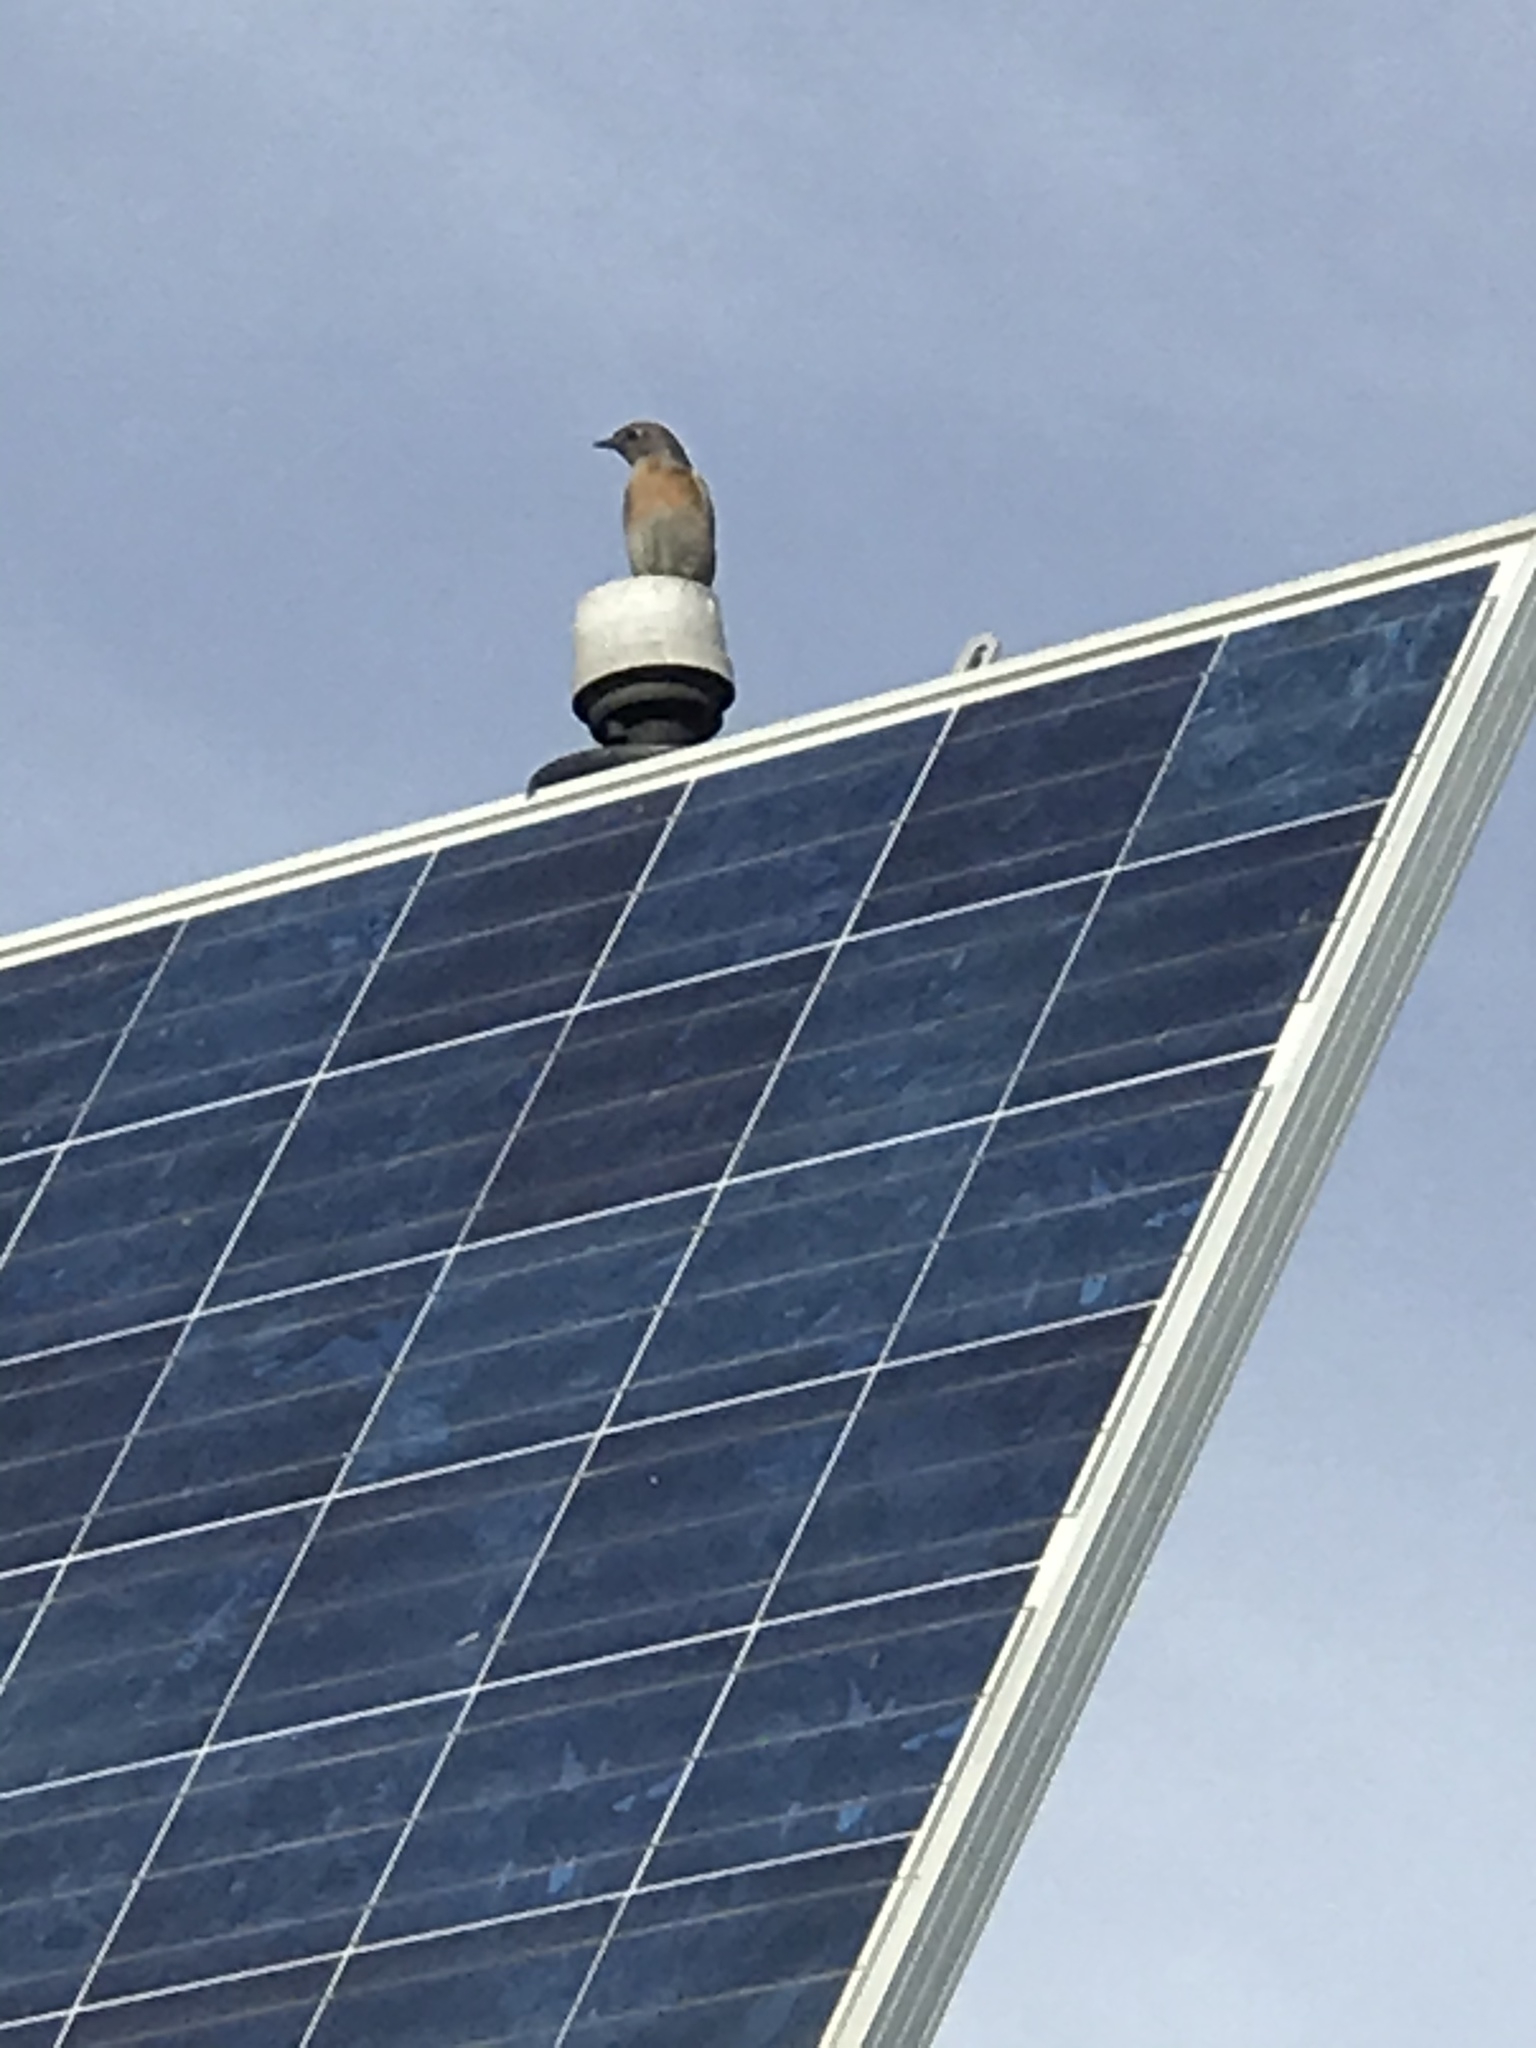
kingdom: Animalia
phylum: Chordata
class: Aves
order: Passeriformes
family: Turdidae
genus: Sialia
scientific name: Sialia mexicana
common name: Western bluebird
